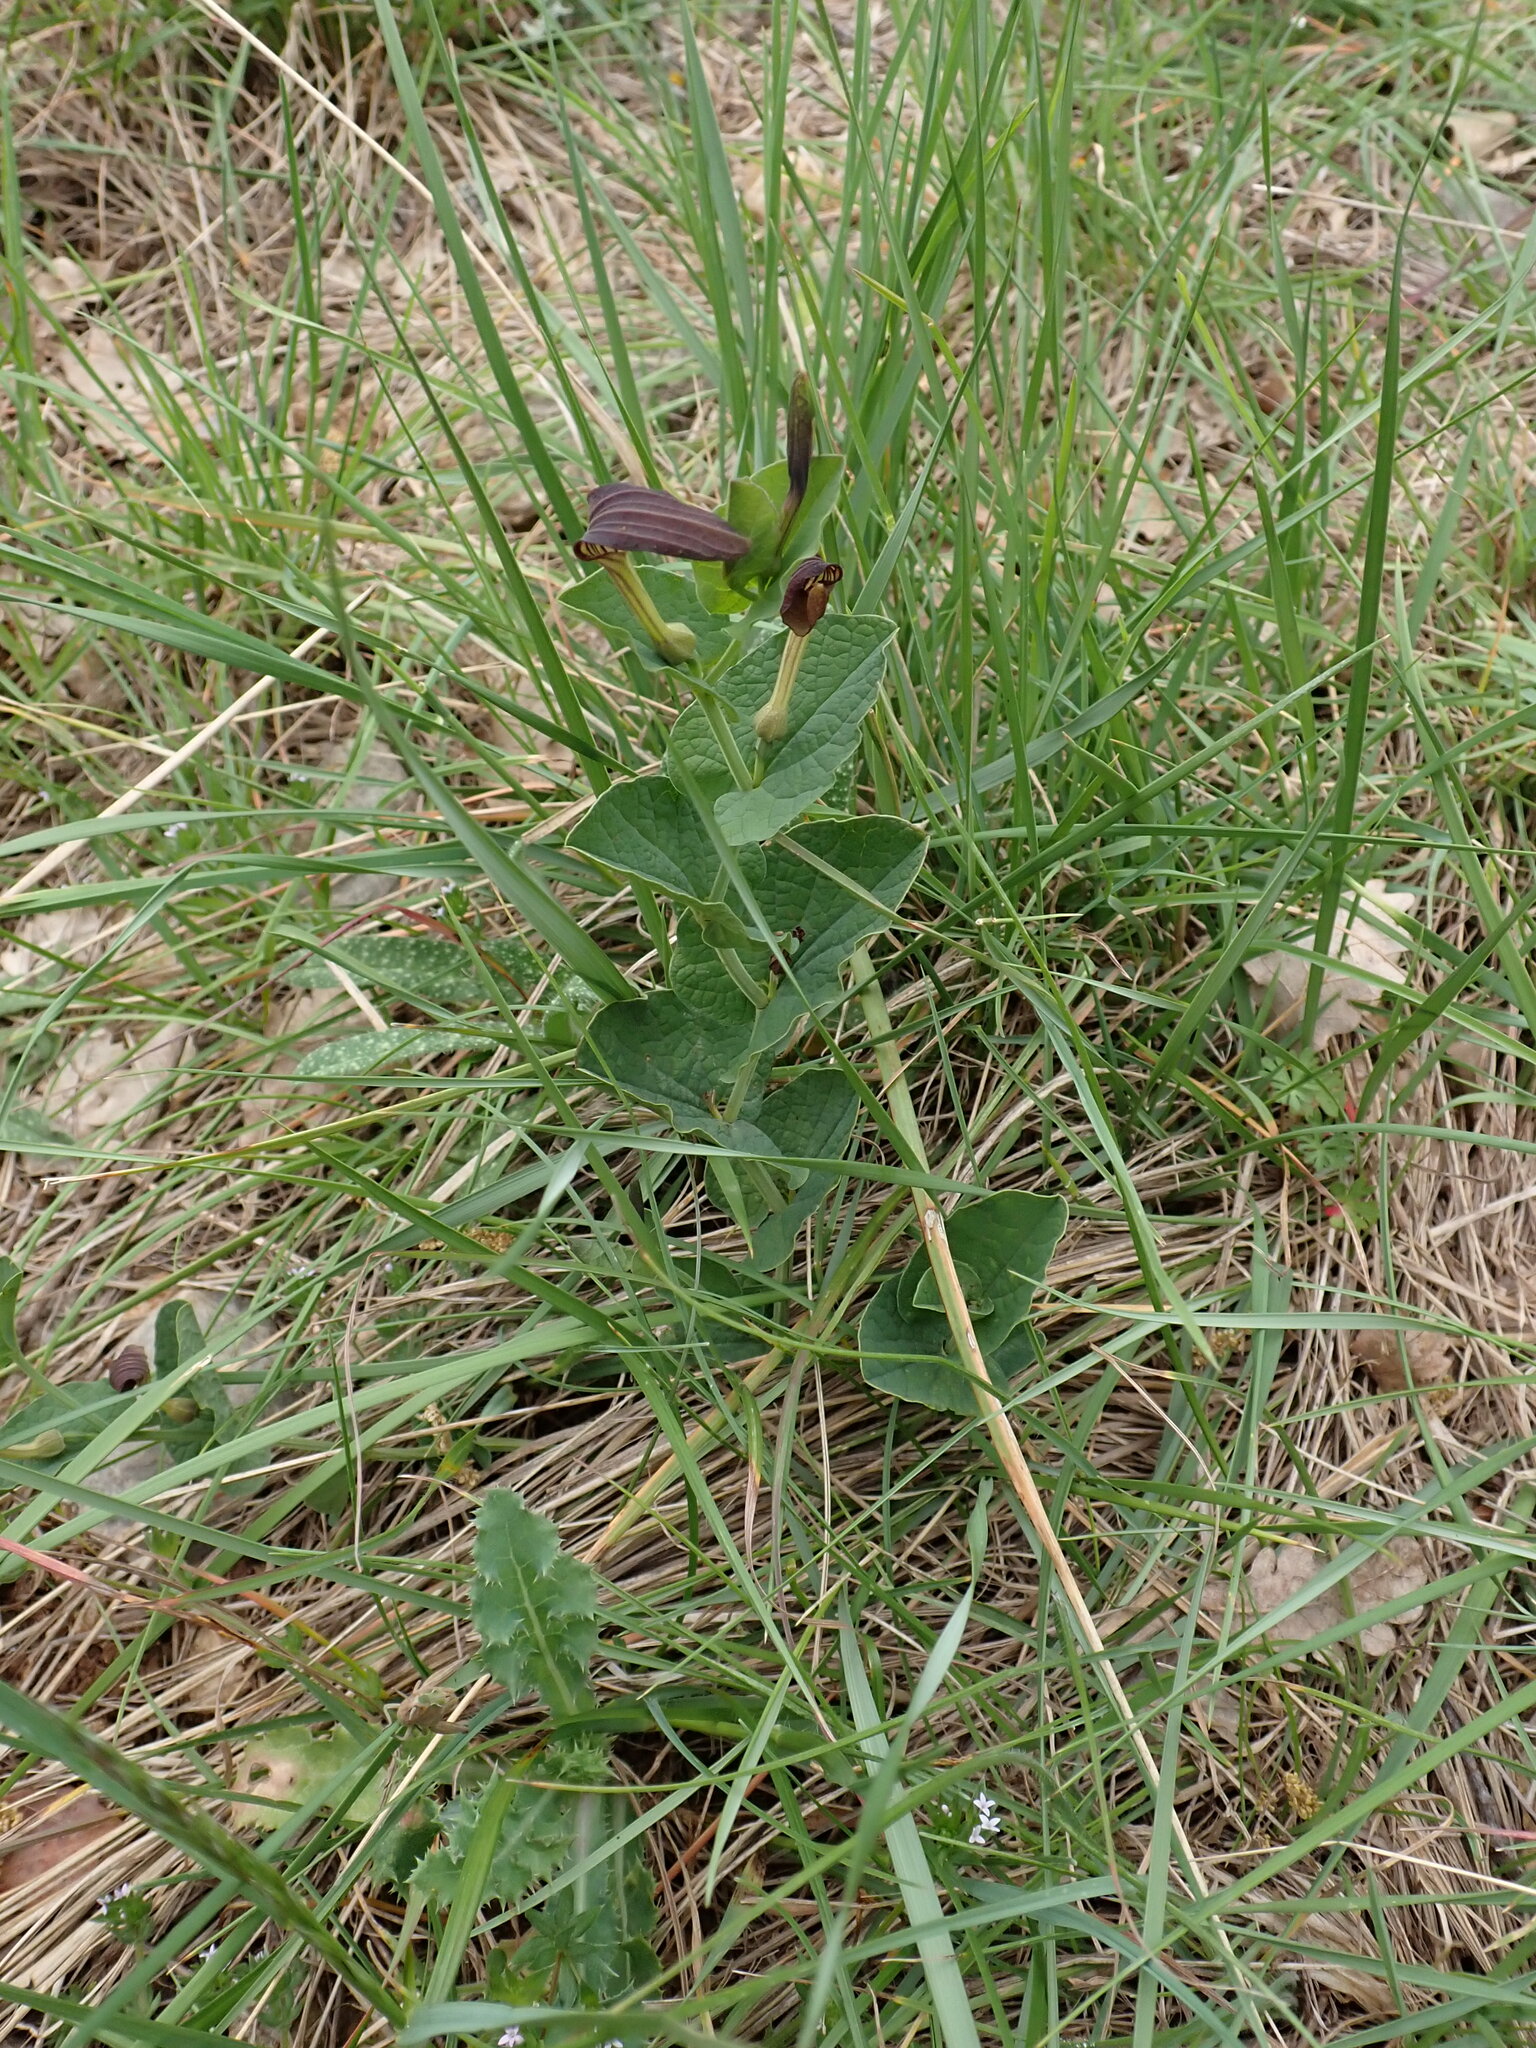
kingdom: Plantae
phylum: Tracheophyta
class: Magnoliopsida
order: Piperales
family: Aristolochiaceae
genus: Aristolochia
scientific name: Aristolochia rotunda
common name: Smearwort
